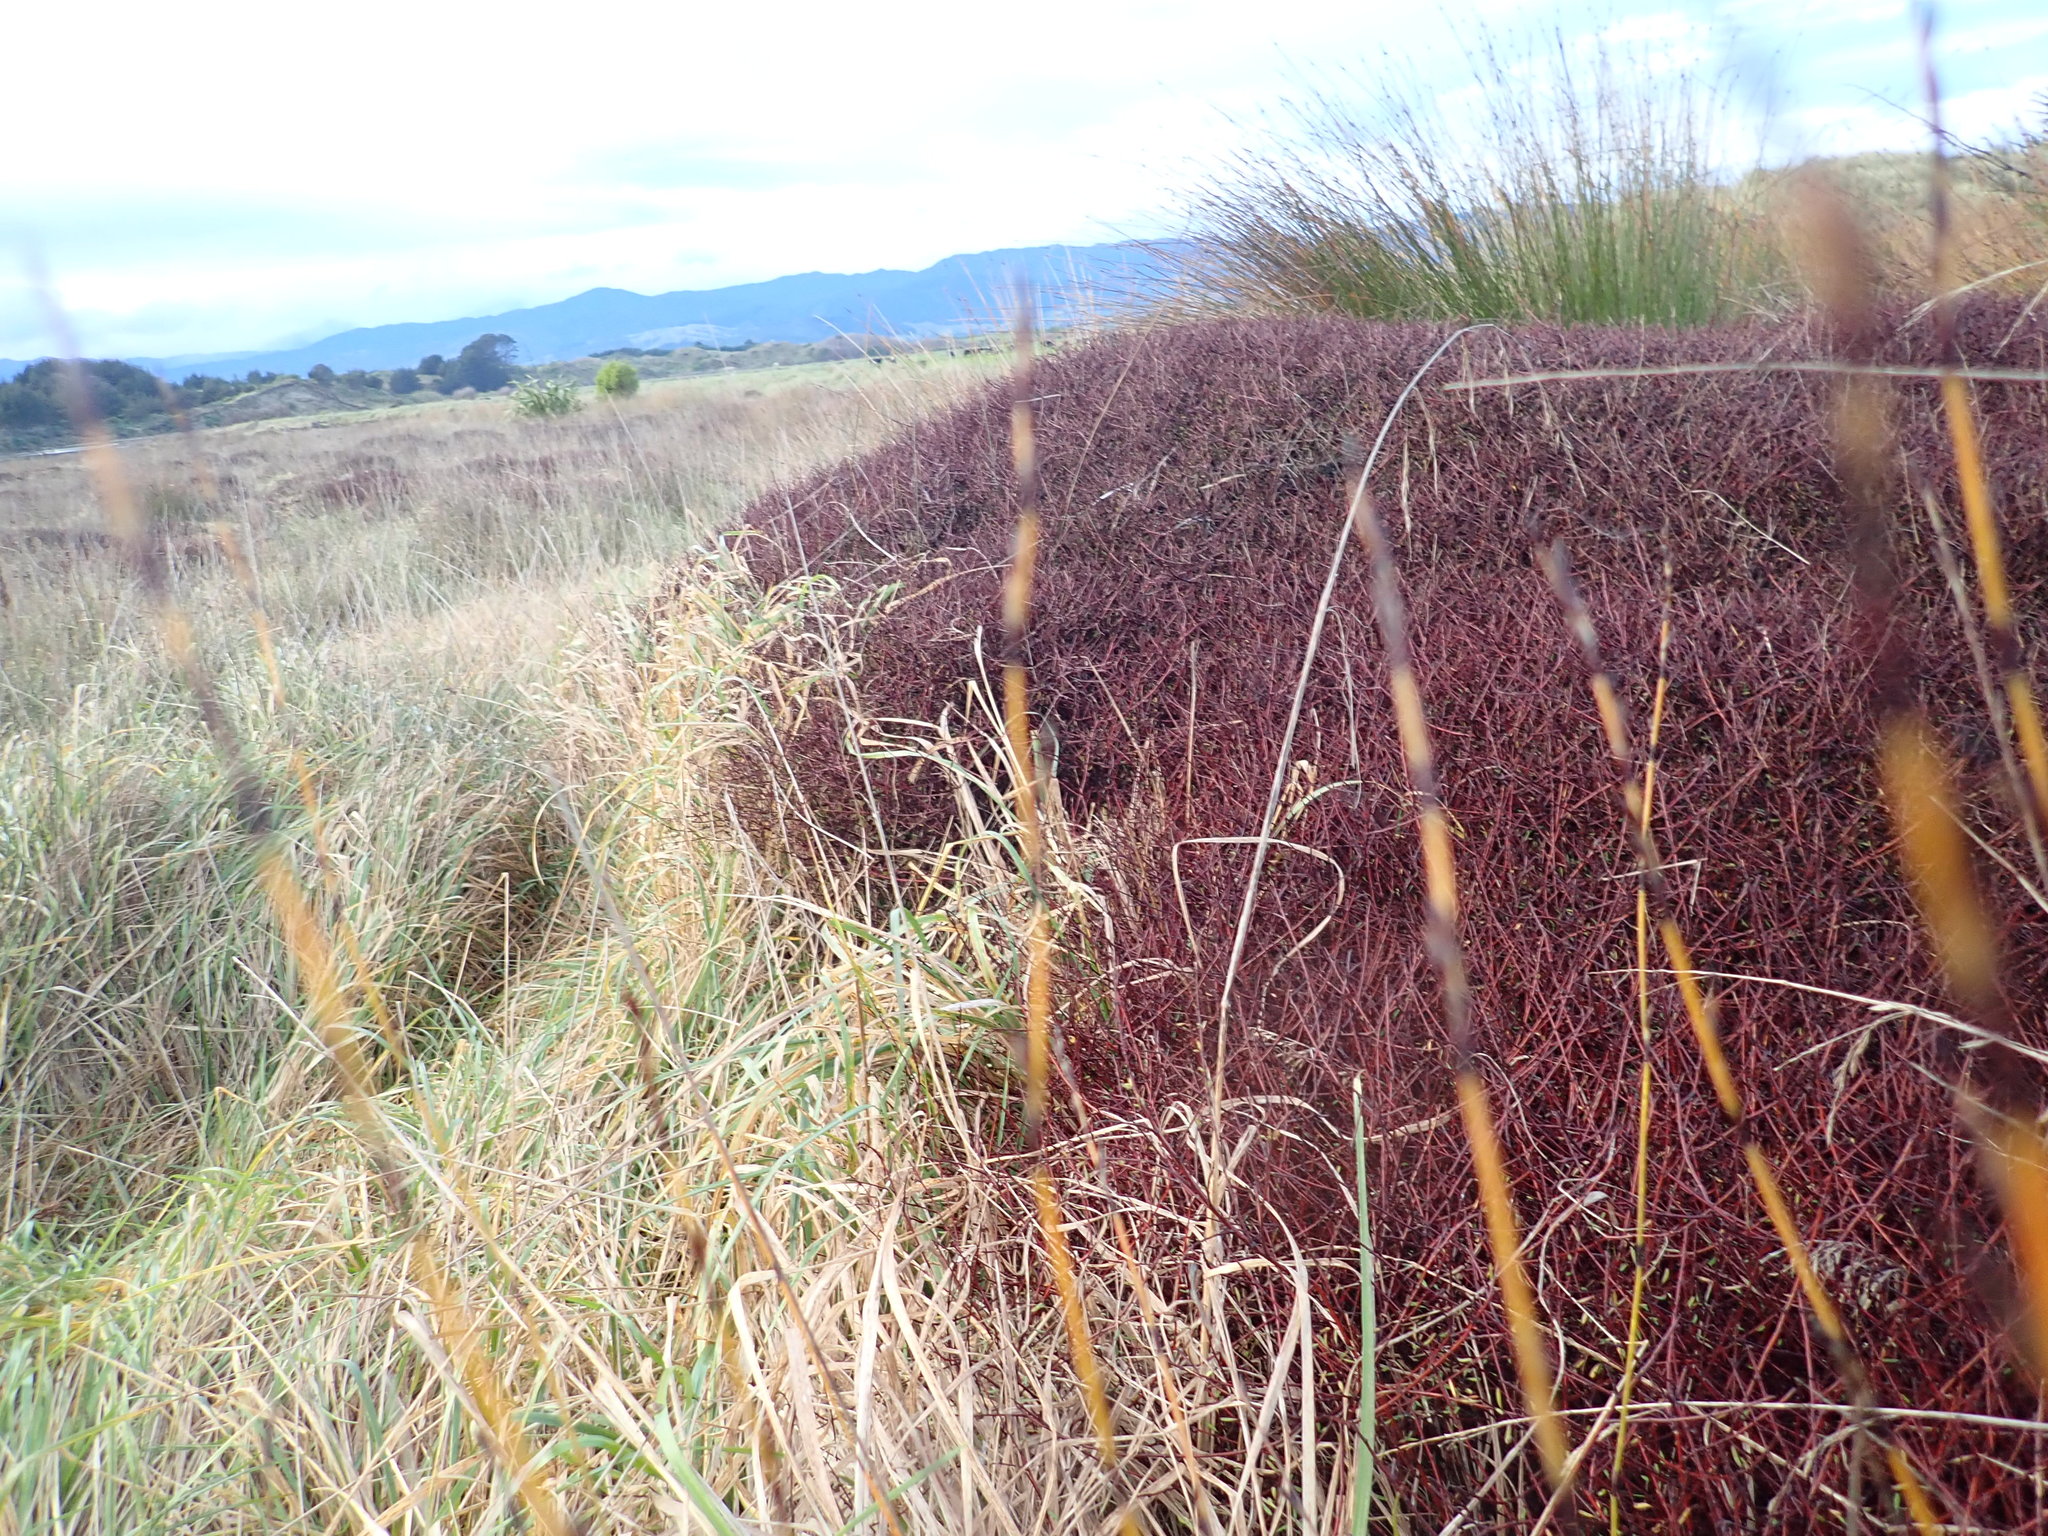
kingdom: Plantae
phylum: Tracheophyta
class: Magnoliopsida
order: Malvales
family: Malvaceae
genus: Plagianthus
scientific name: Plagianthus divaricatus
